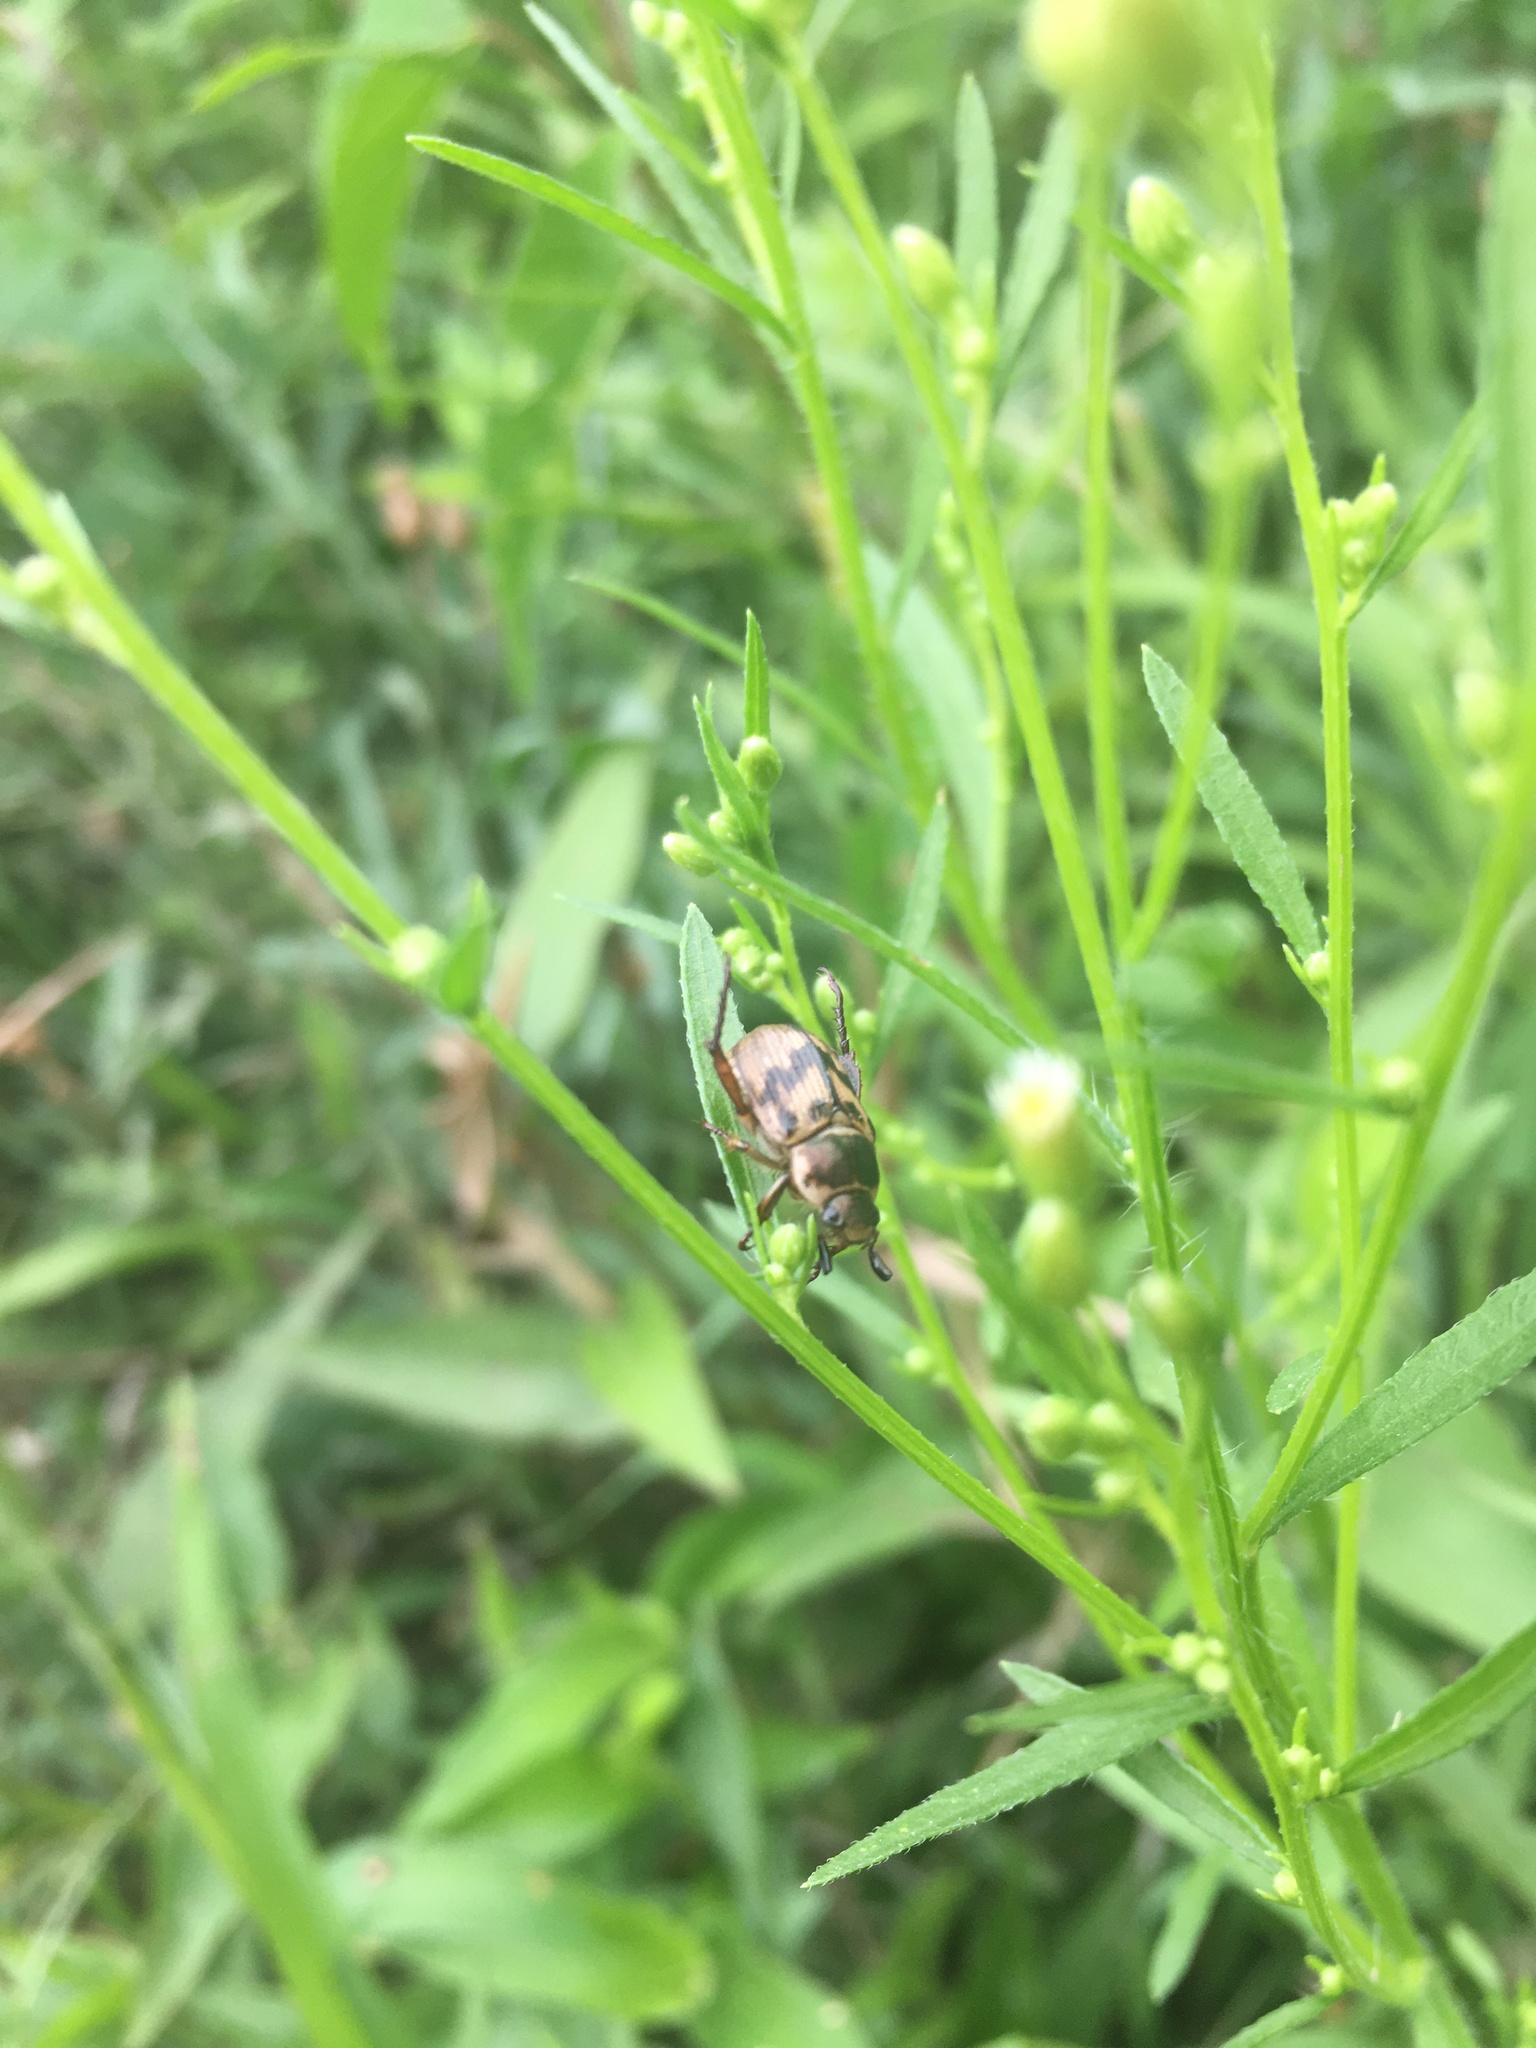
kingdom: Animalia
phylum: Arthropoda
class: Insecta
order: Coleoptera
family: Scarabaeidae
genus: Exomala
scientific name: Exomala orientalis
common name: Oriental beetle
